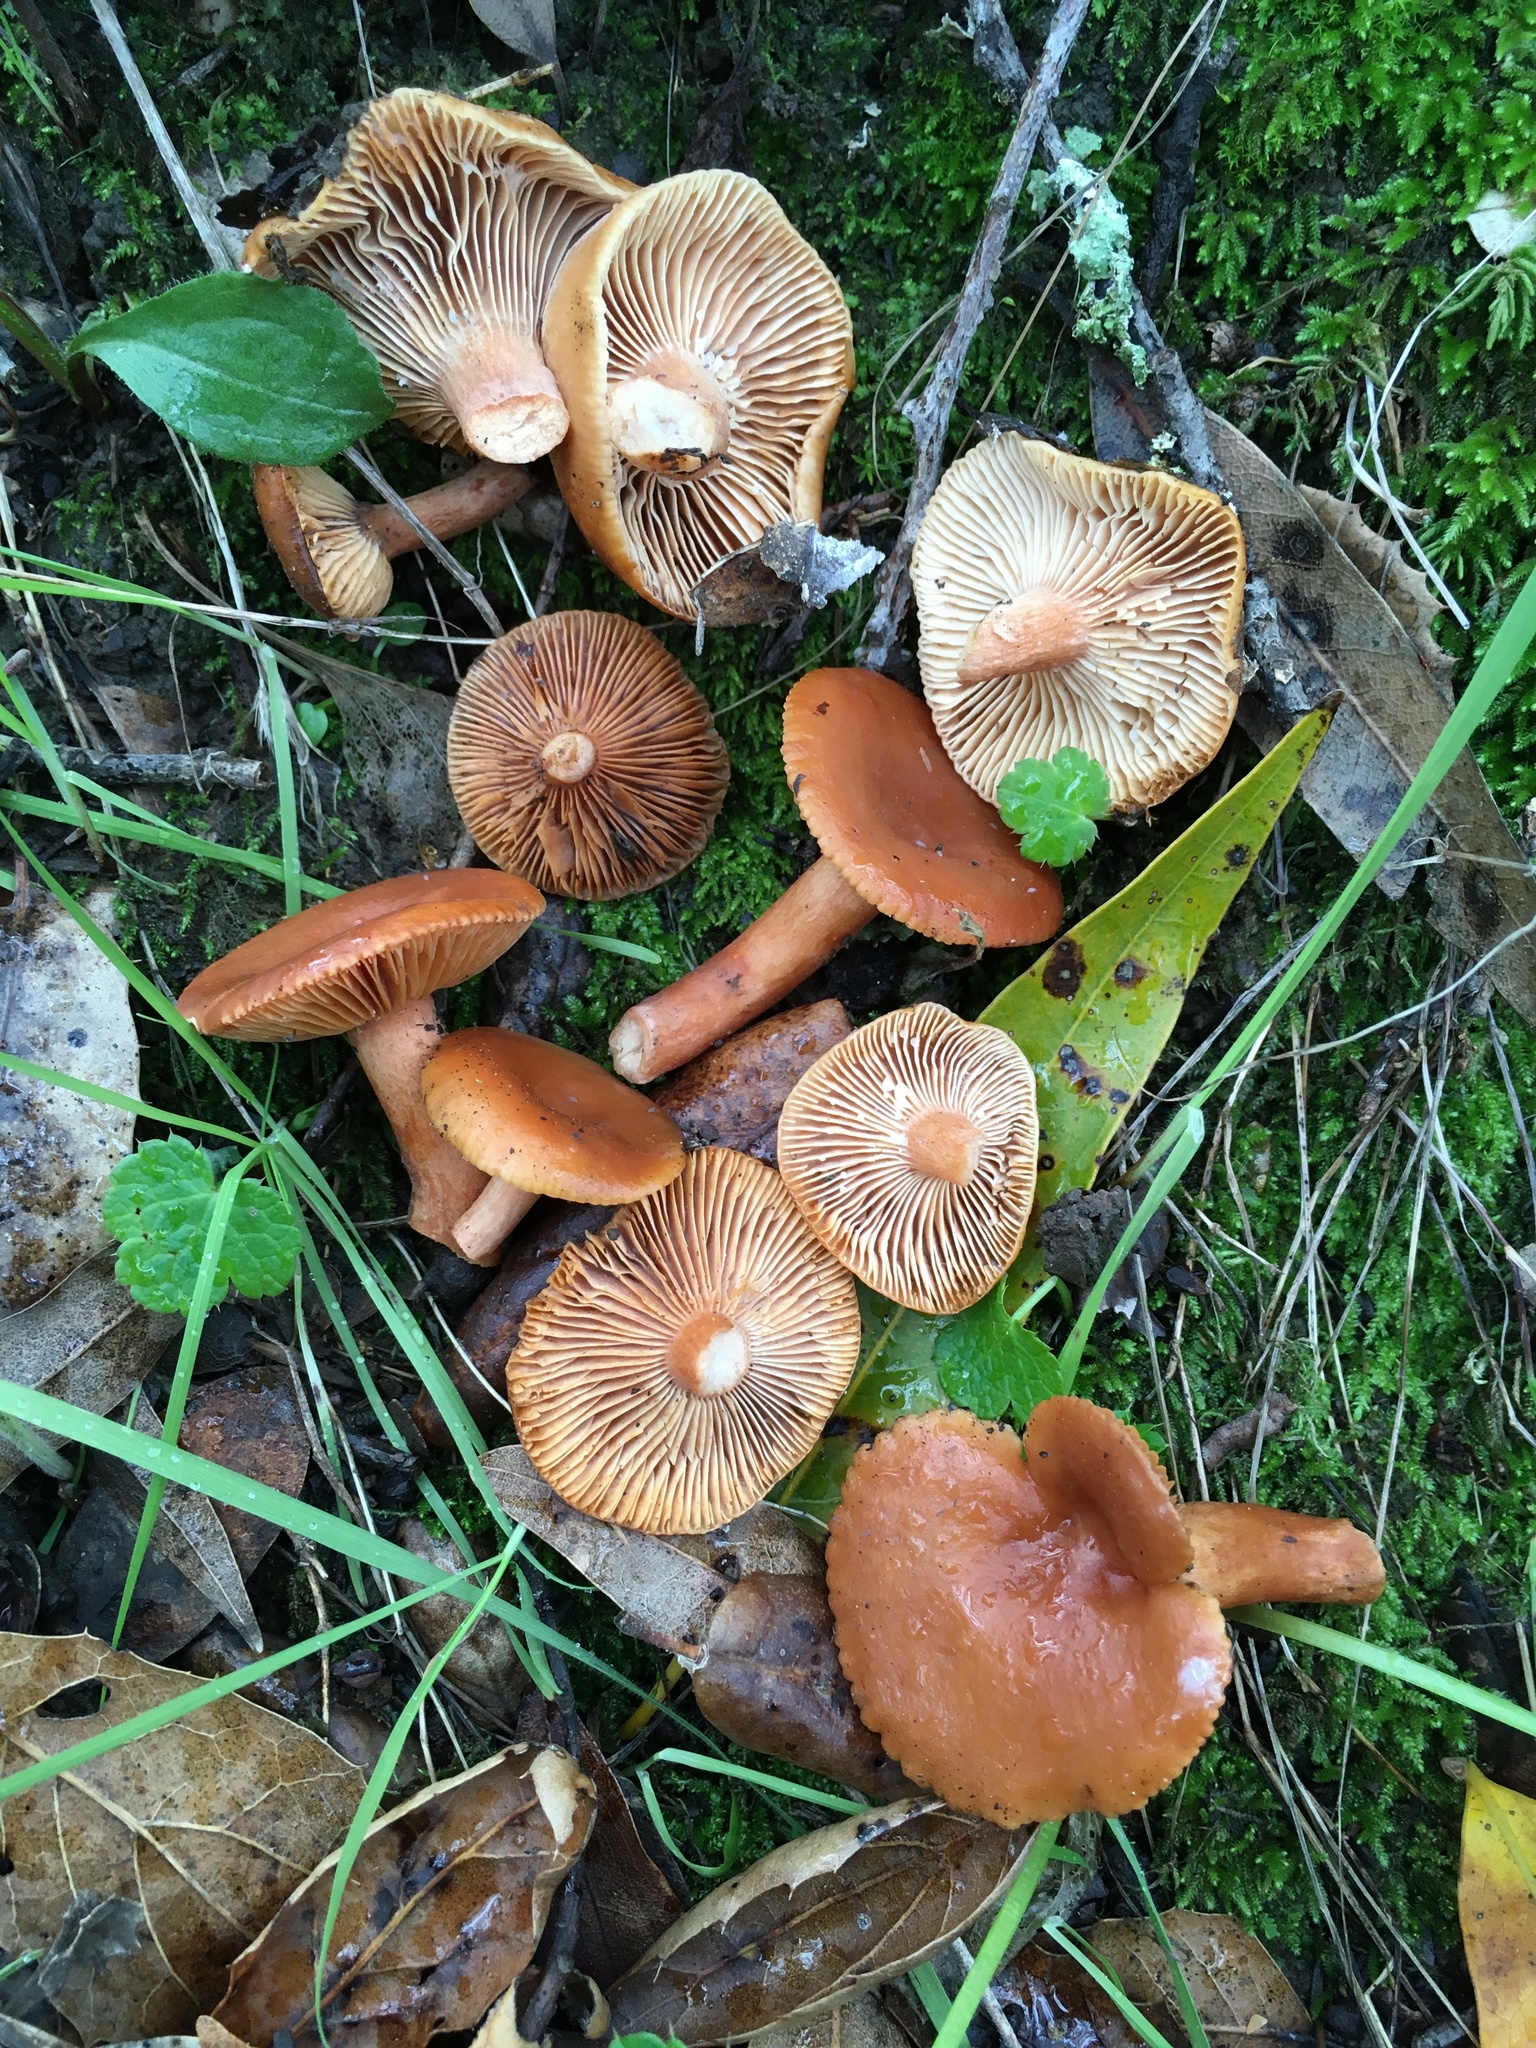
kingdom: Fungi
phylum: Basidiomycota
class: Agaricomycetes
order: Russulales
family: Russulaceae
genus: Lactarius
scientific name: Lactarius rubidus
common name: Candy cap
